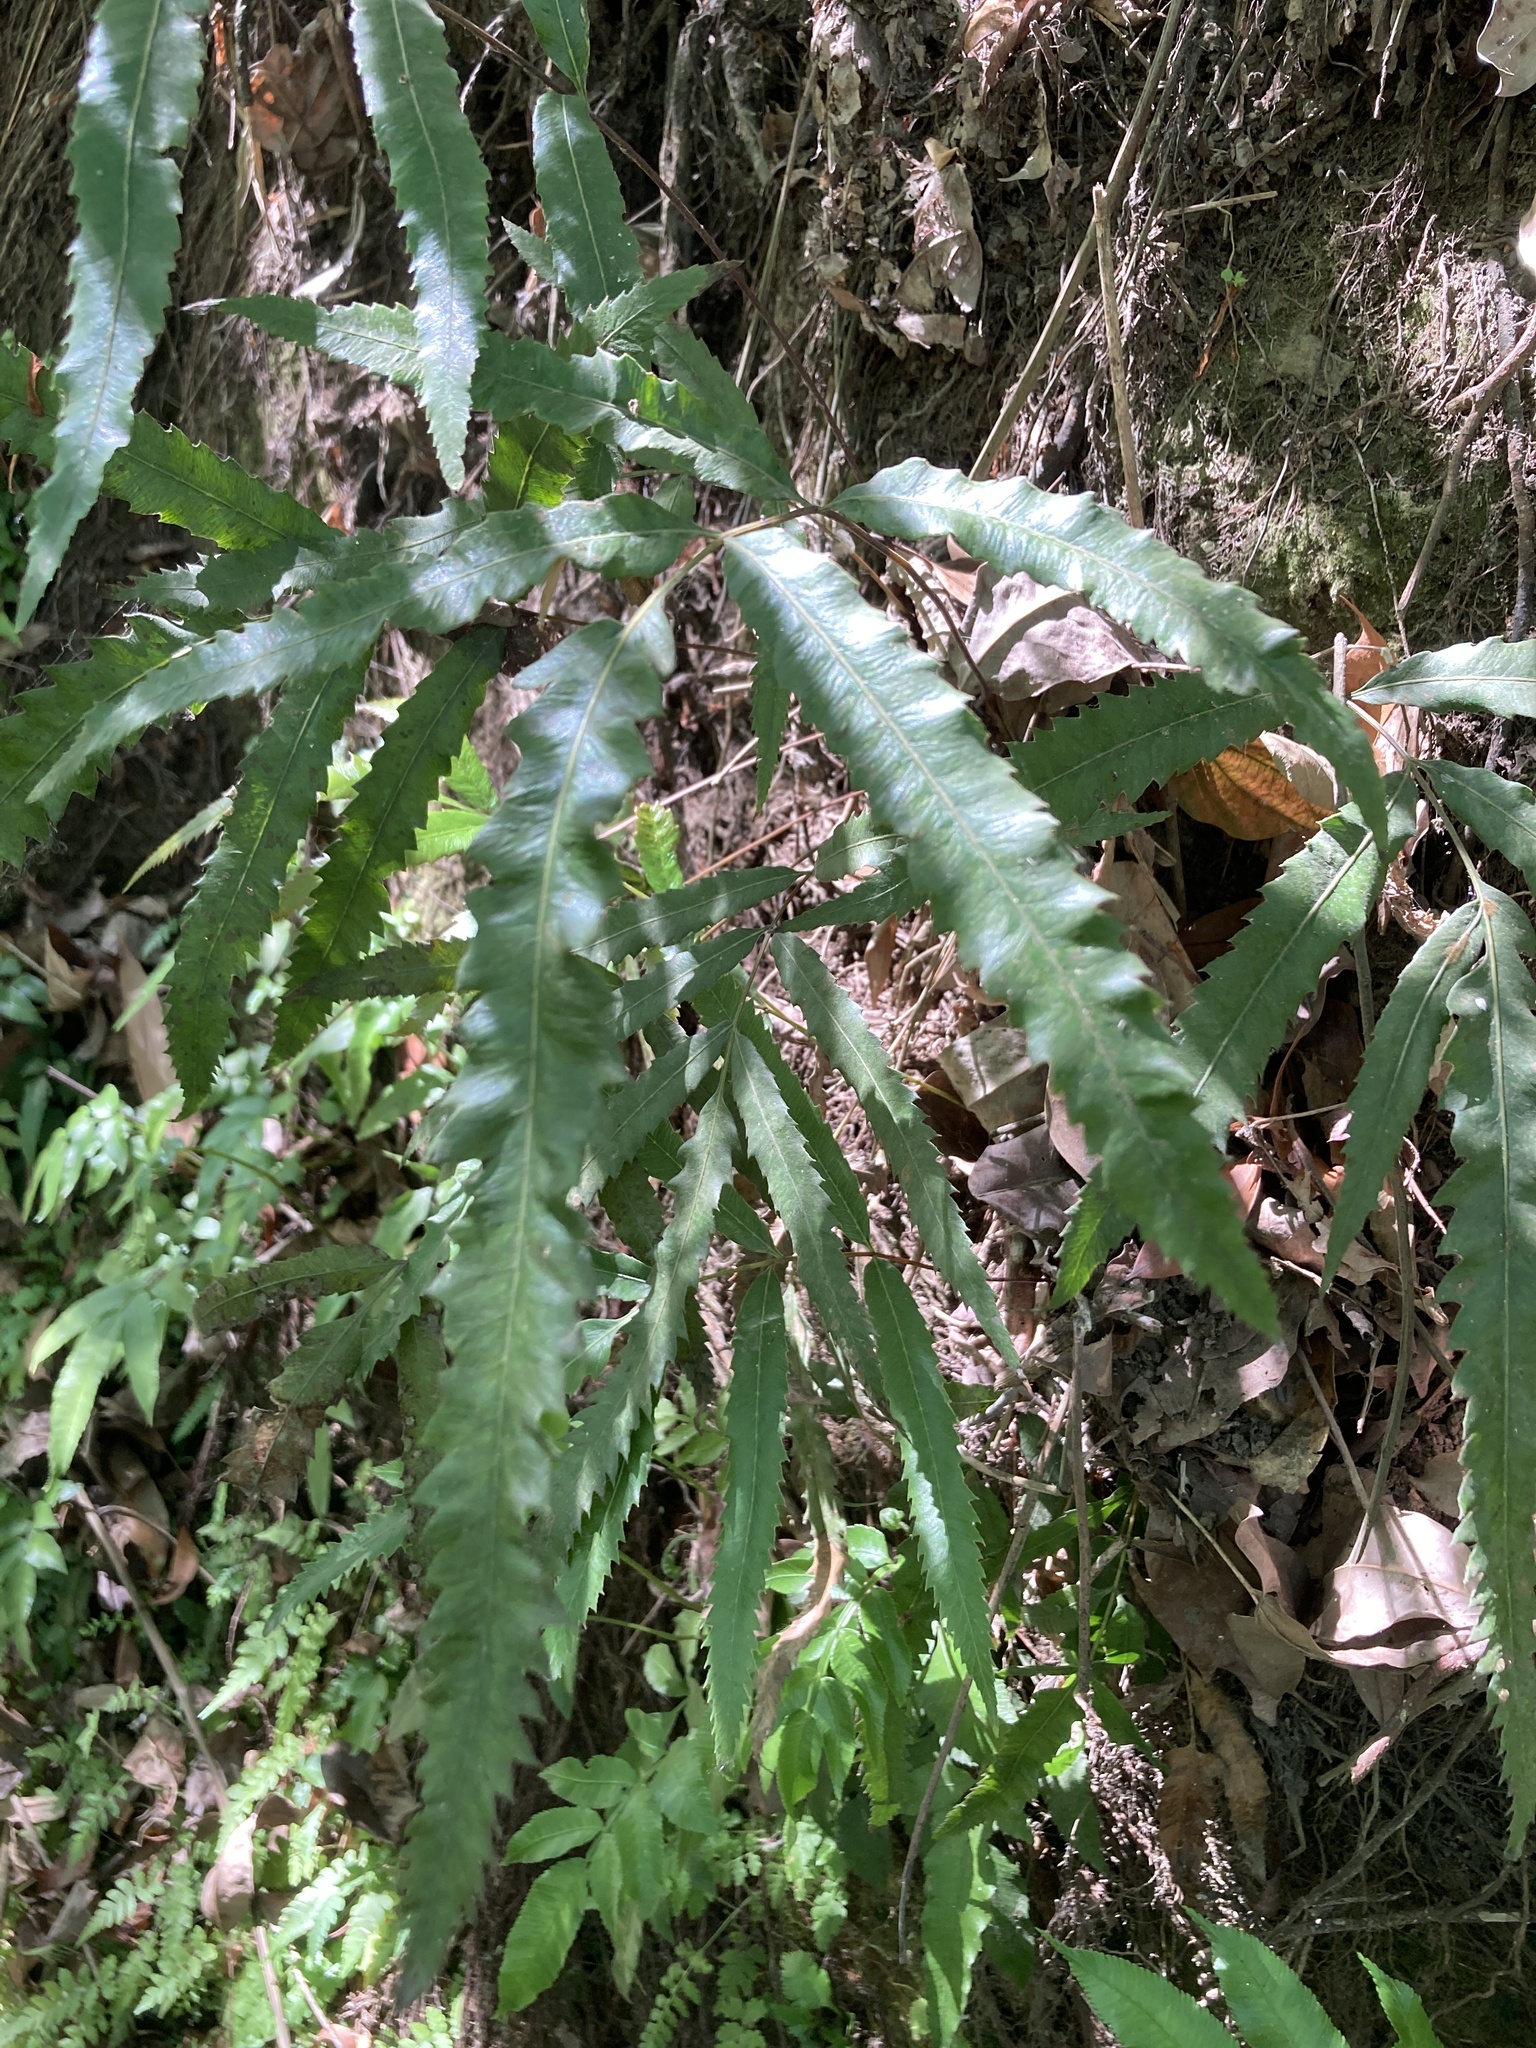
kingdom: Plantae
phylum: Tracheophyta
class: Polypodiopsida
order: Osmundales
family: Osmundaceae
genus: Plenasium
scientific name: Plenasium banksiifolium
